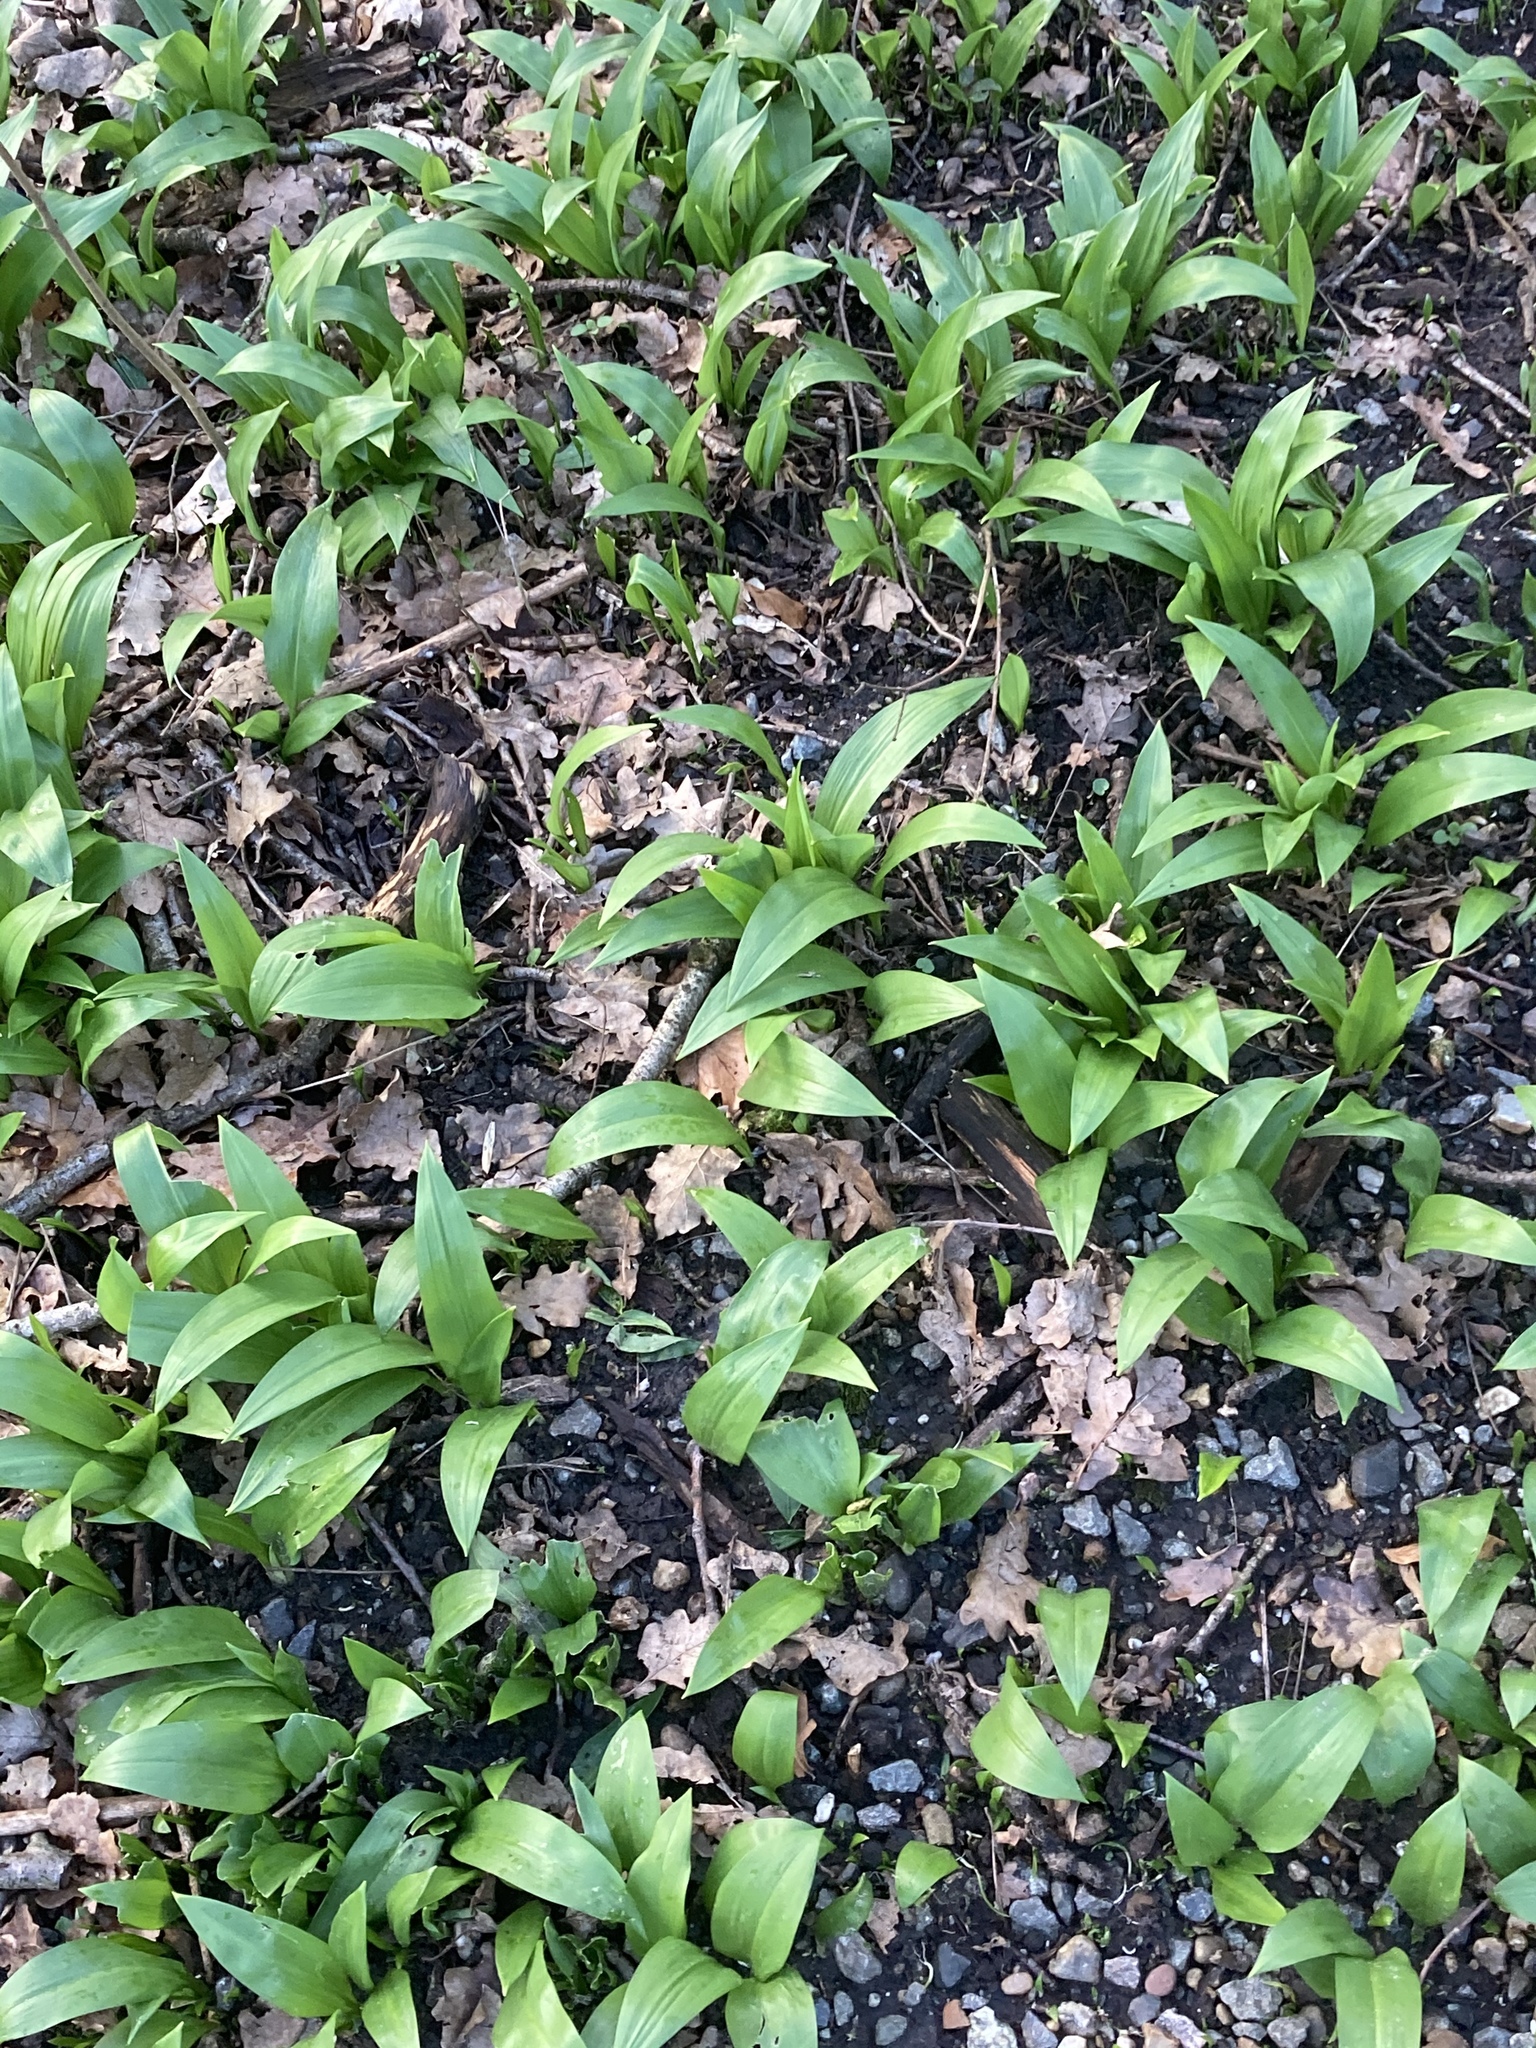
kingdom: Plantae
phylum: Tracheophyta
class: Liliopsida
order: Asparagales
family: Amaryllidaceae
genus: Allium
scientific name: Allium ursinum
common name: Ramsons
